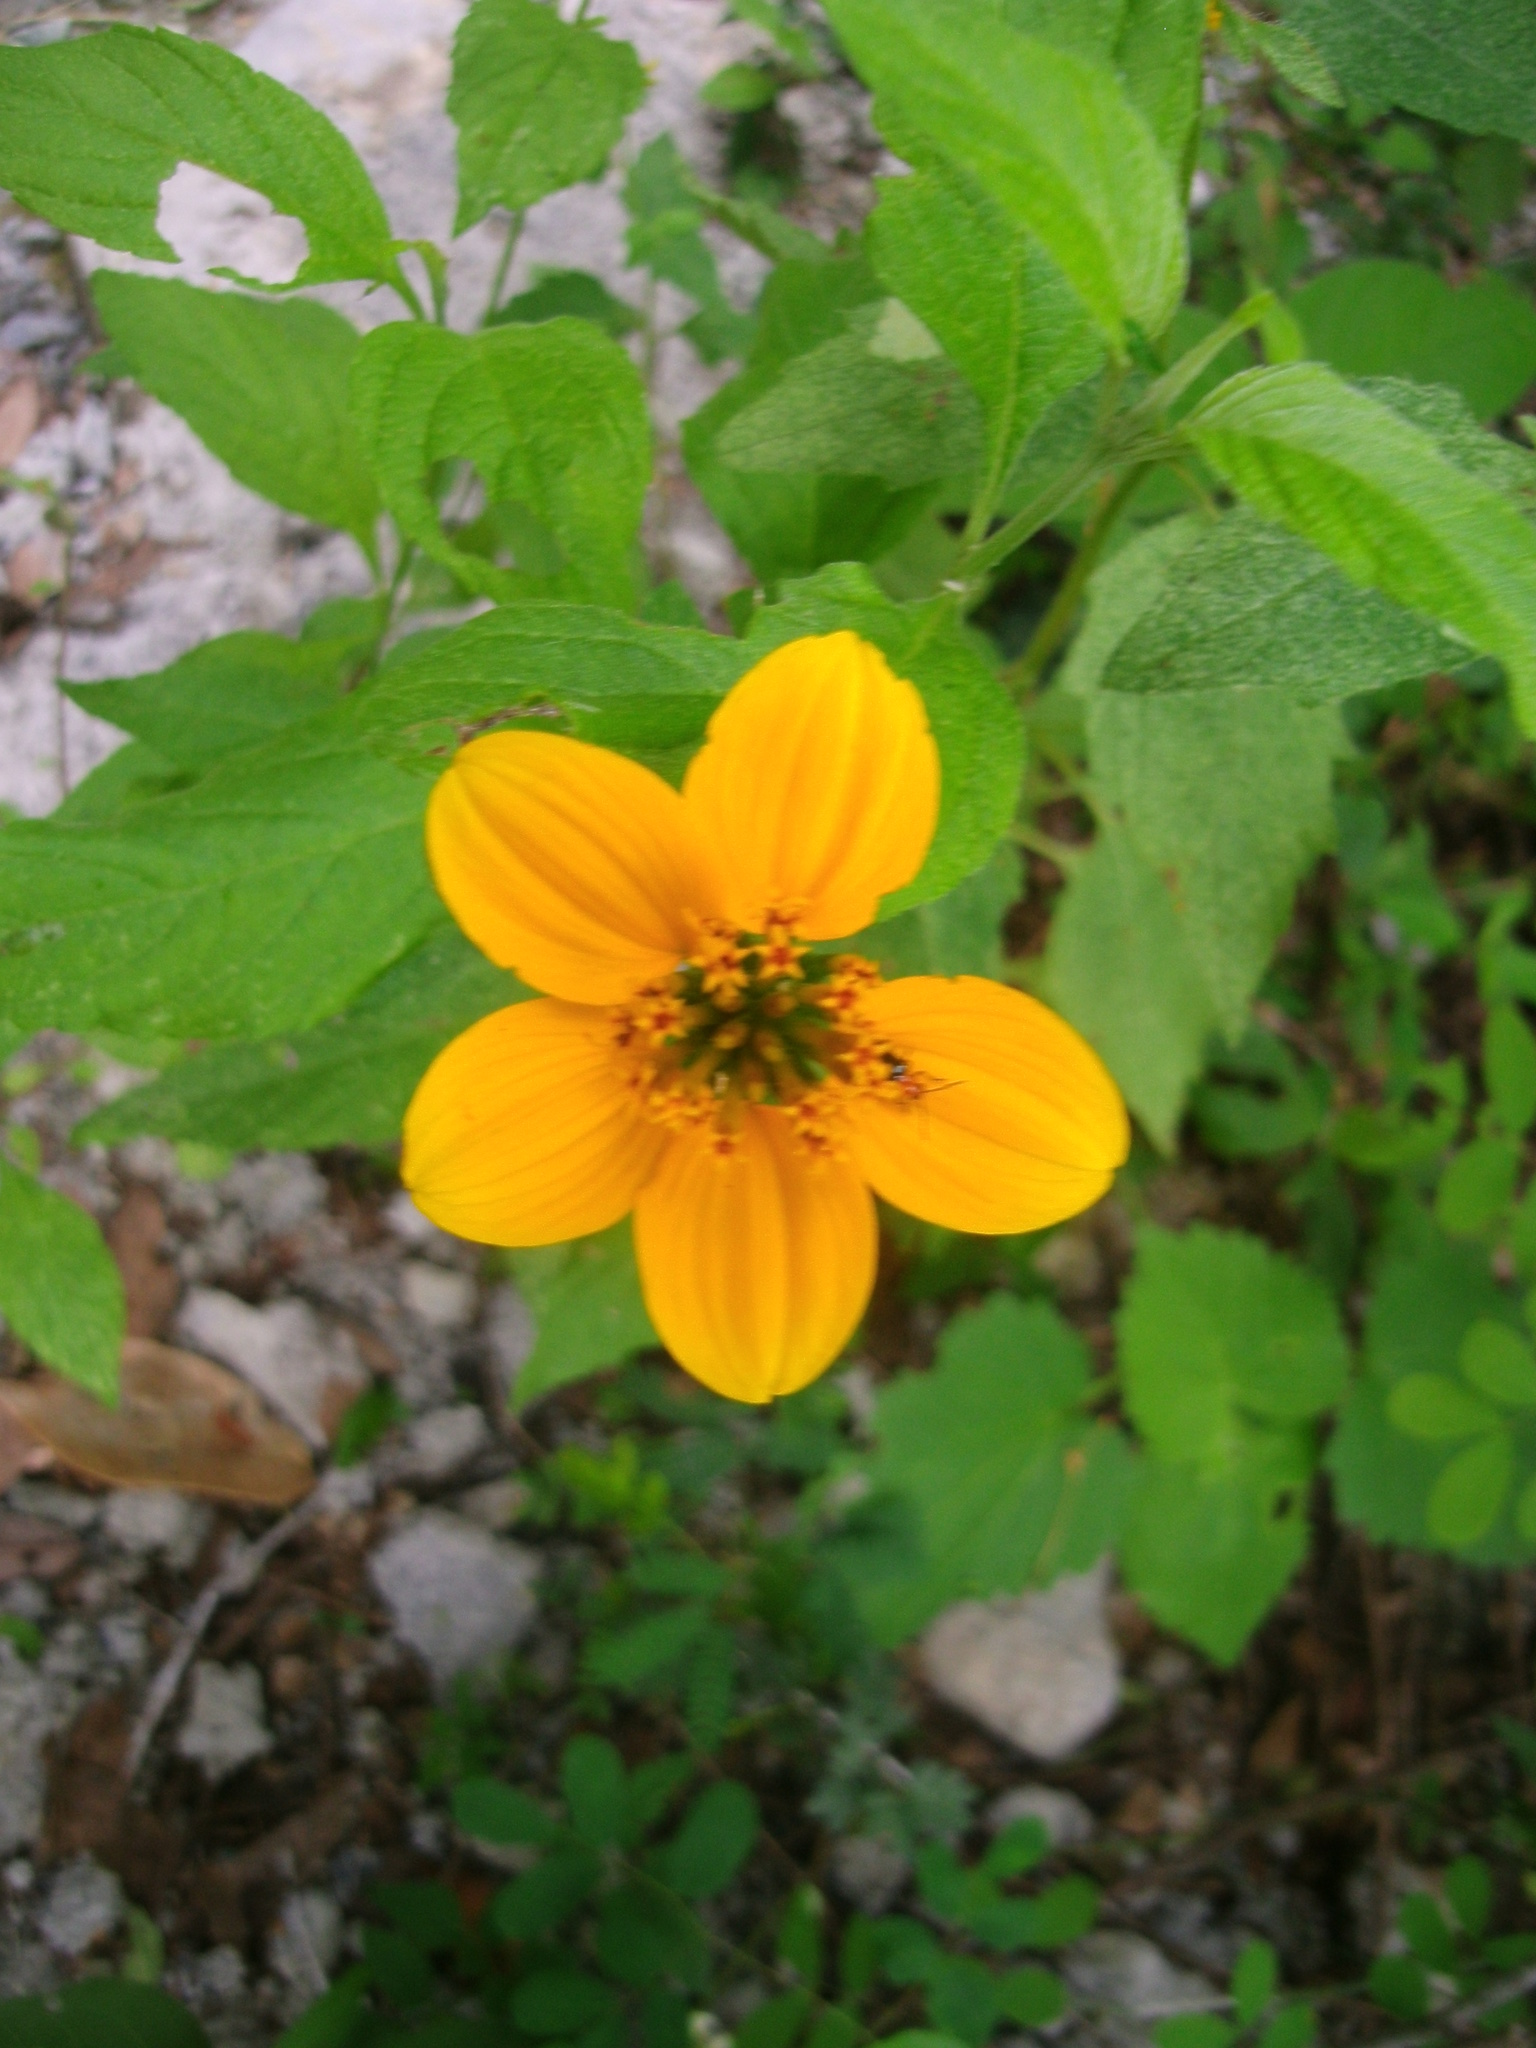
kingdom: Plantae
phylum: Tracheophyta
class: Magnoliopsida
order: Asterales
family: Asteraceae
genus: Sclerocarpus
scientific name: Sclerocarpus uniserialis
